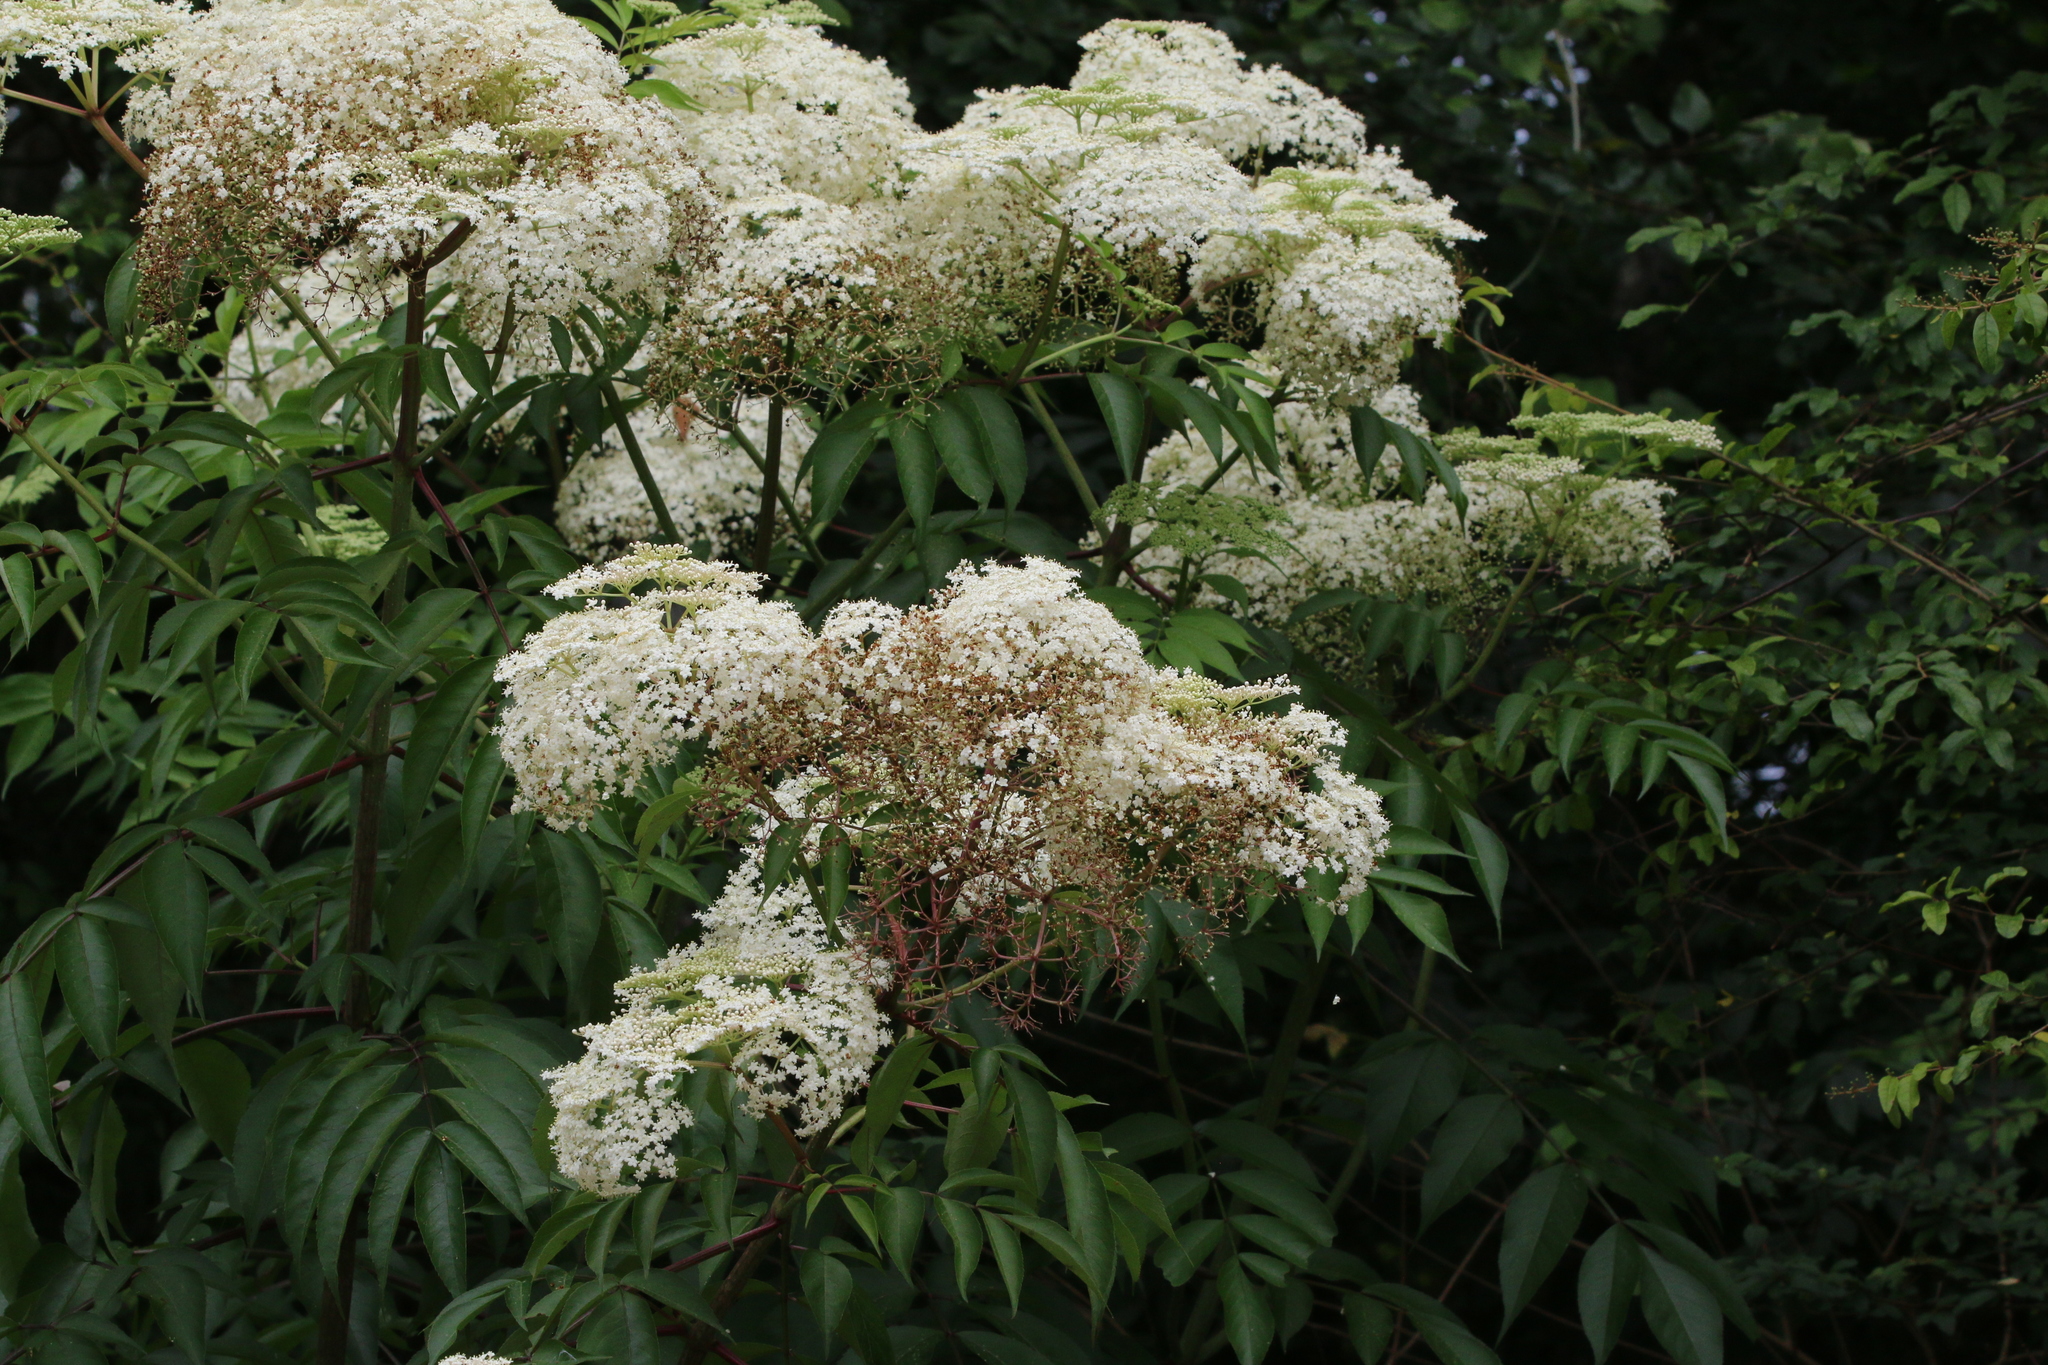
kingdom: Plantae
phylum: Tracheophyta
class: Magnoliopsida
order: Dipsacales
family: Viburnaceae
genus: Sambucus
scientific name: Sambucus canadensis
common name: American elder
